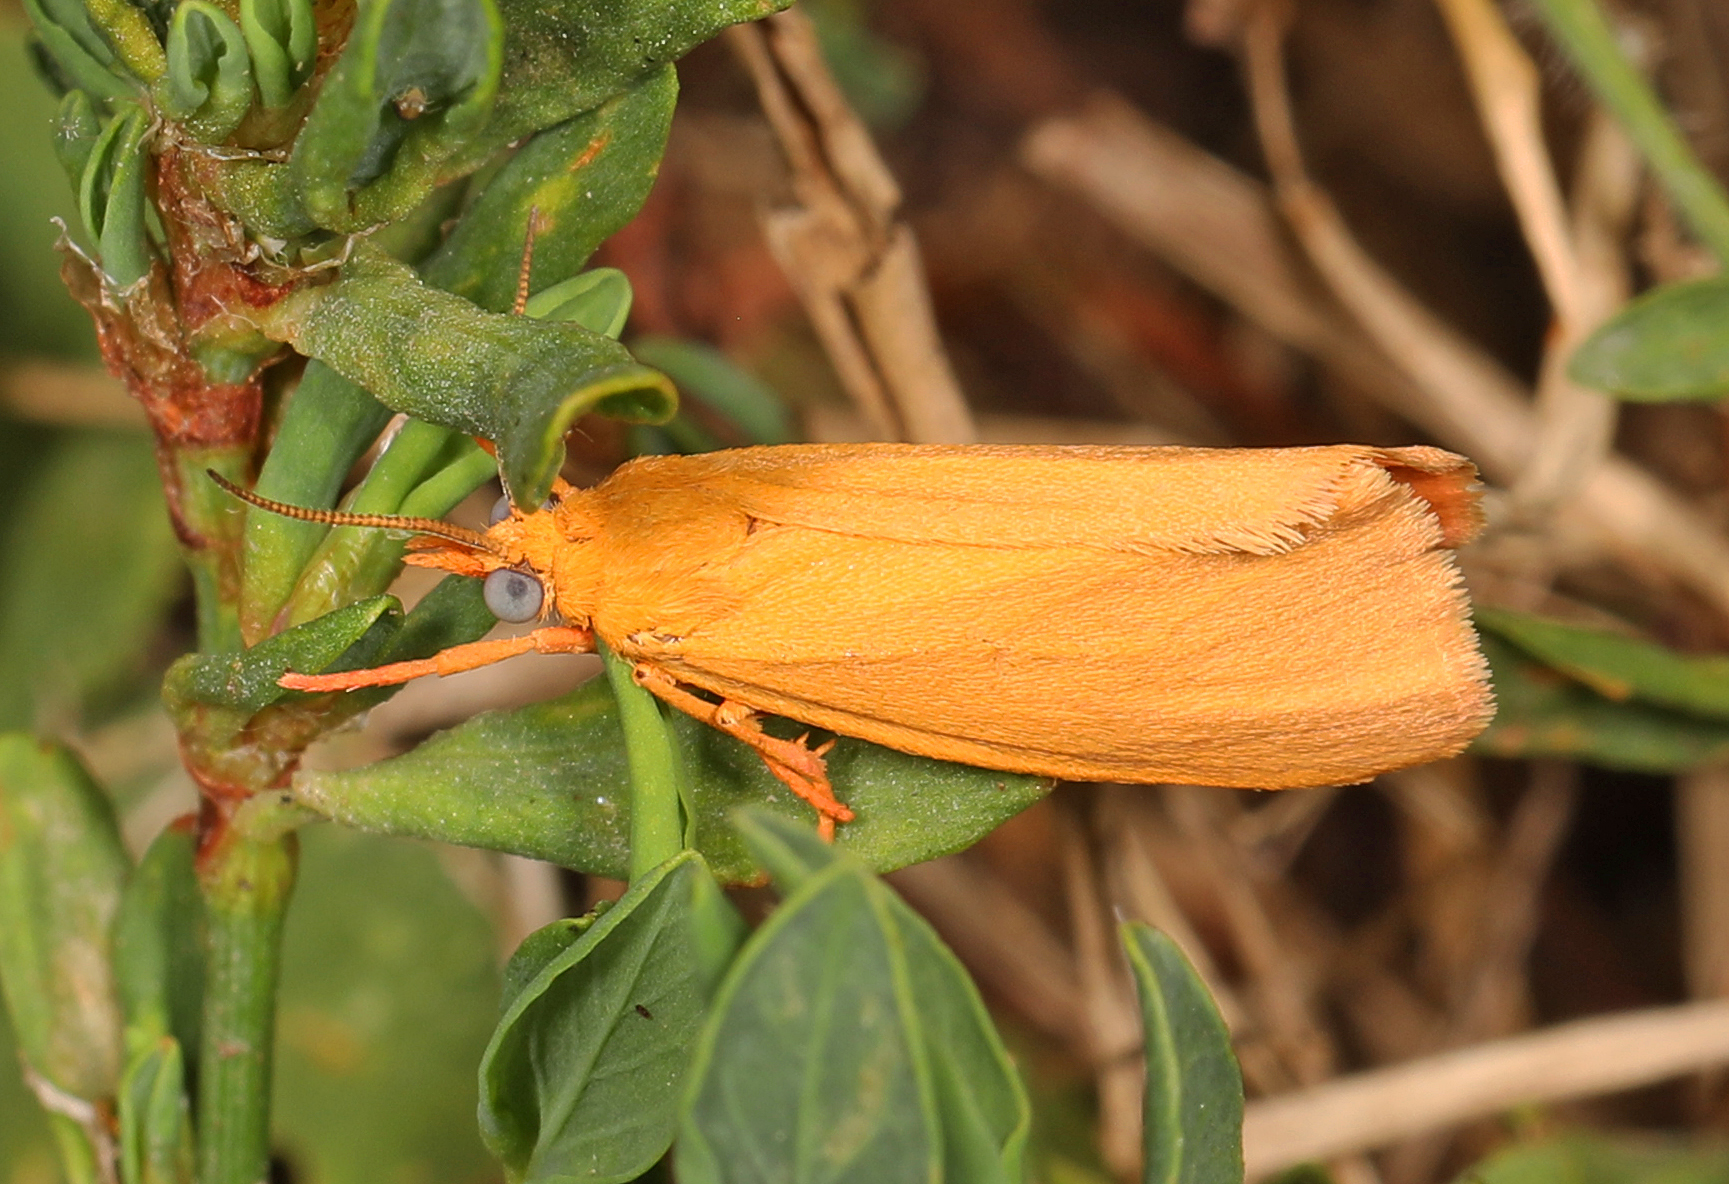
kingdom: Animalia
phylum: Arthropoda
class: Insecta
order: Lepidoptera
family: Erebidae
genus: Virbia
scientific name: Virbia aurantiaca
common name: Orange virbia moth
